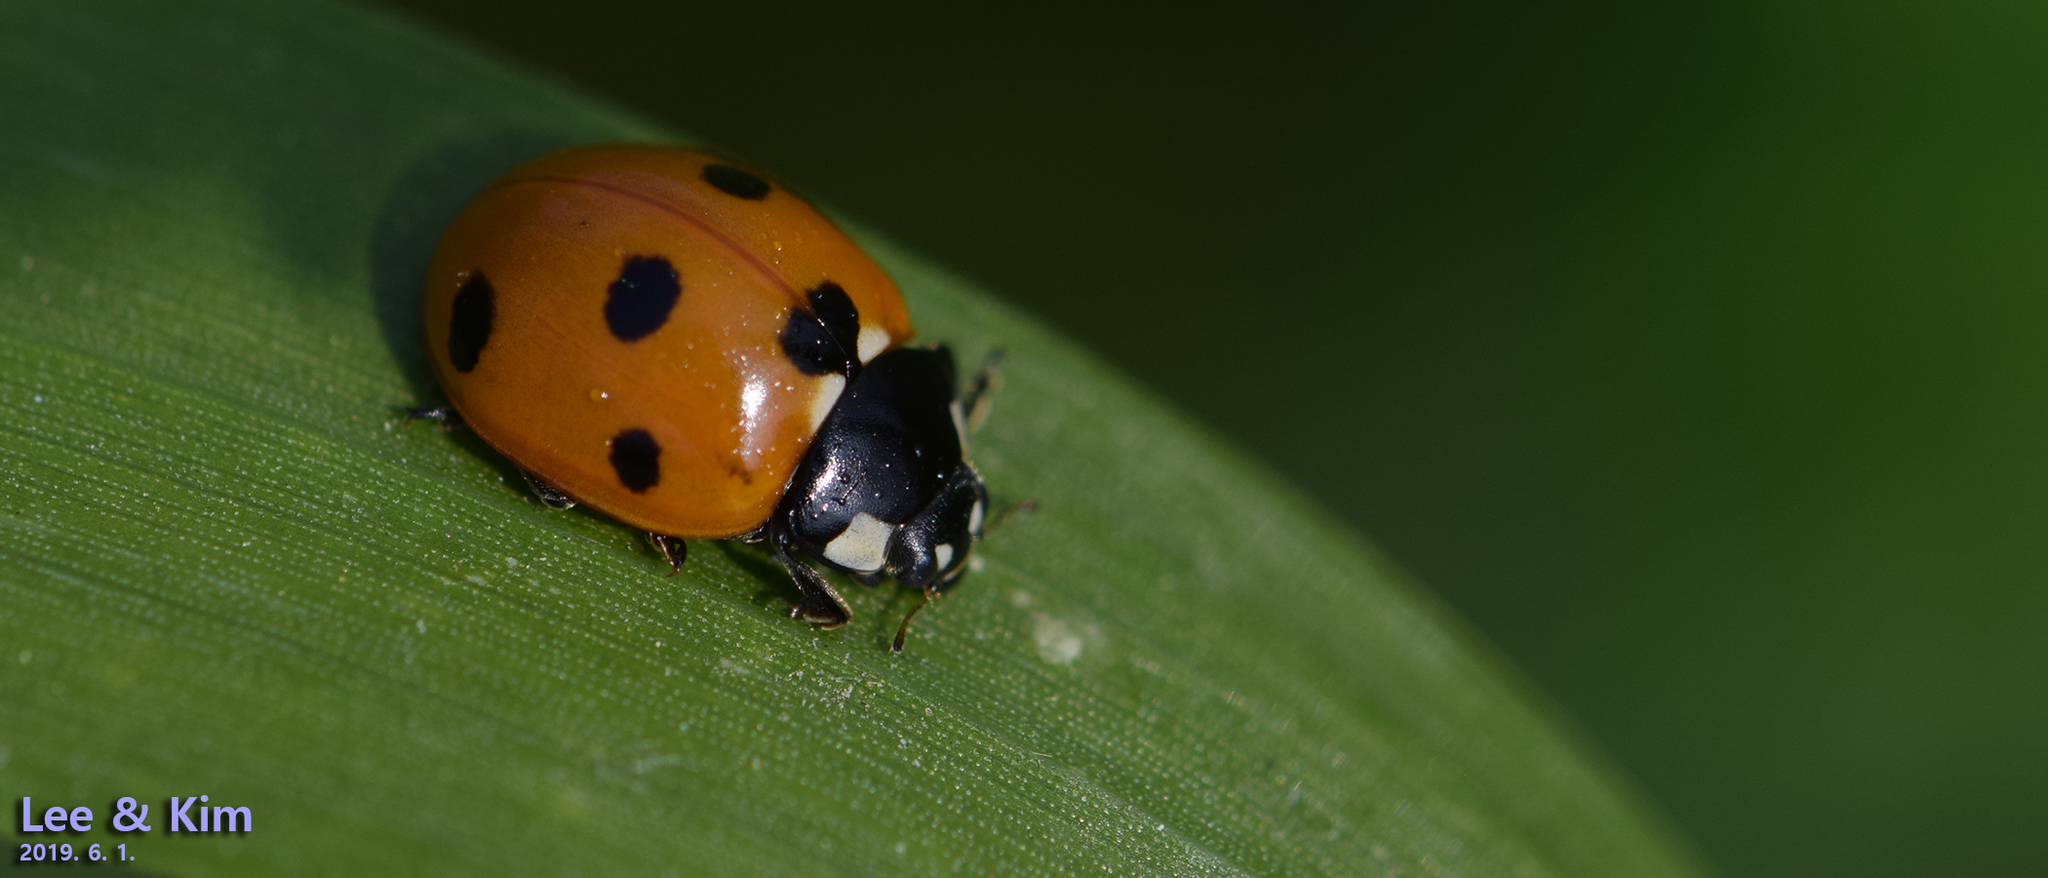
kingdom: Animalia
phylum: Arthropoda
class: Insecta
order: Coleoptera
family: Coccinellidae
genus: Coccinella
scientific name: Coccinella septempunctata
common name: Sevenspotted lady beetle
